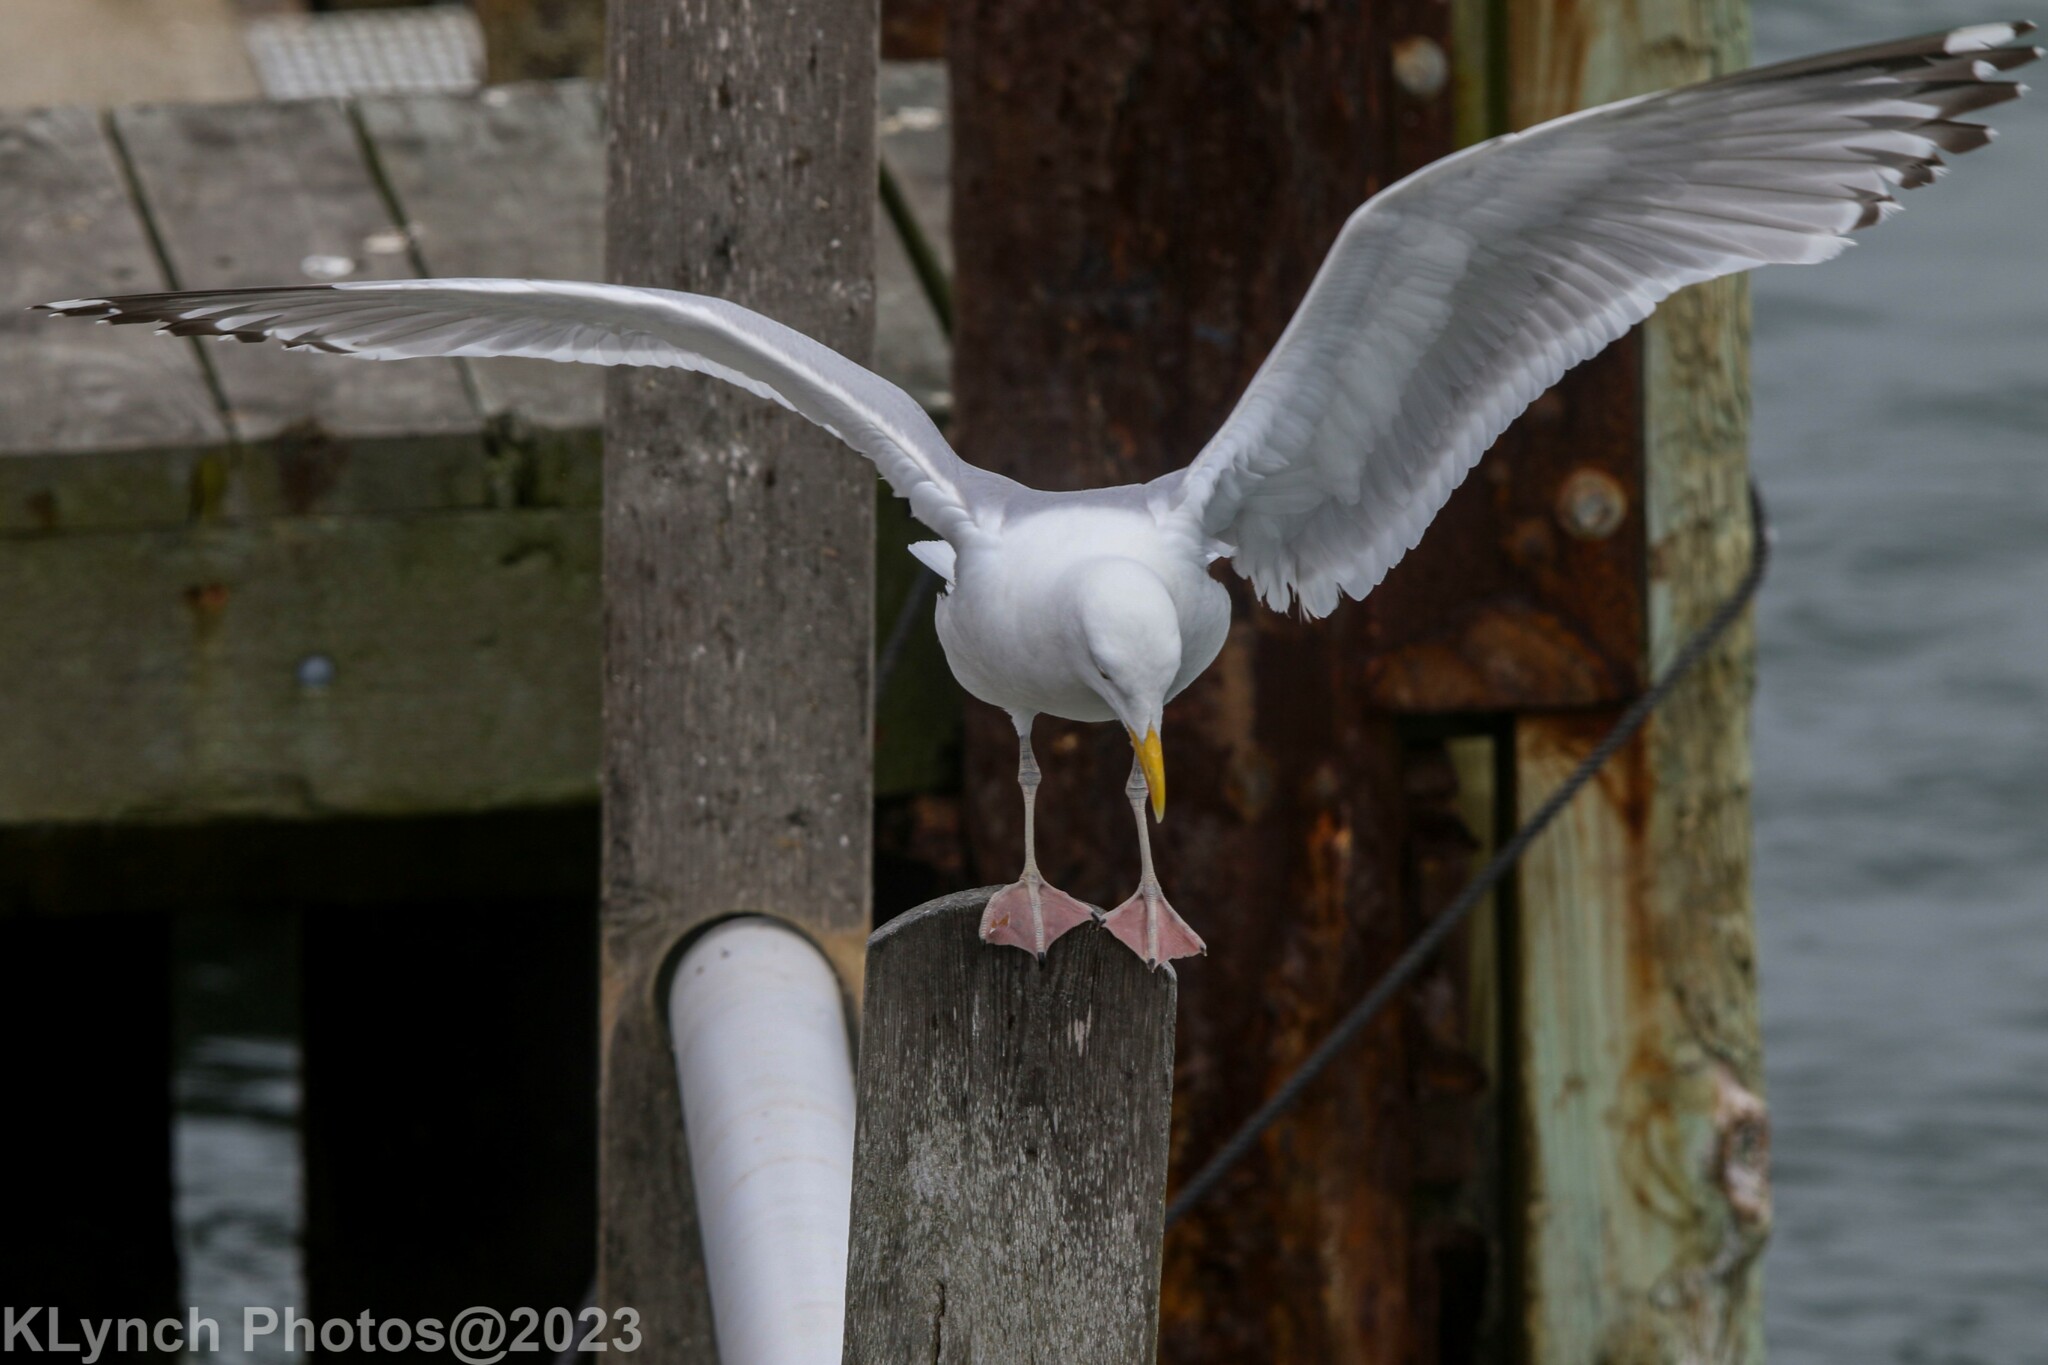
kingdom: Animalia
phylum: Chordata
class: Aves
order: Charadriiformes
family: Laridae
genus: Larus
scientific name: Larus argentatus
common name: Herring gull
